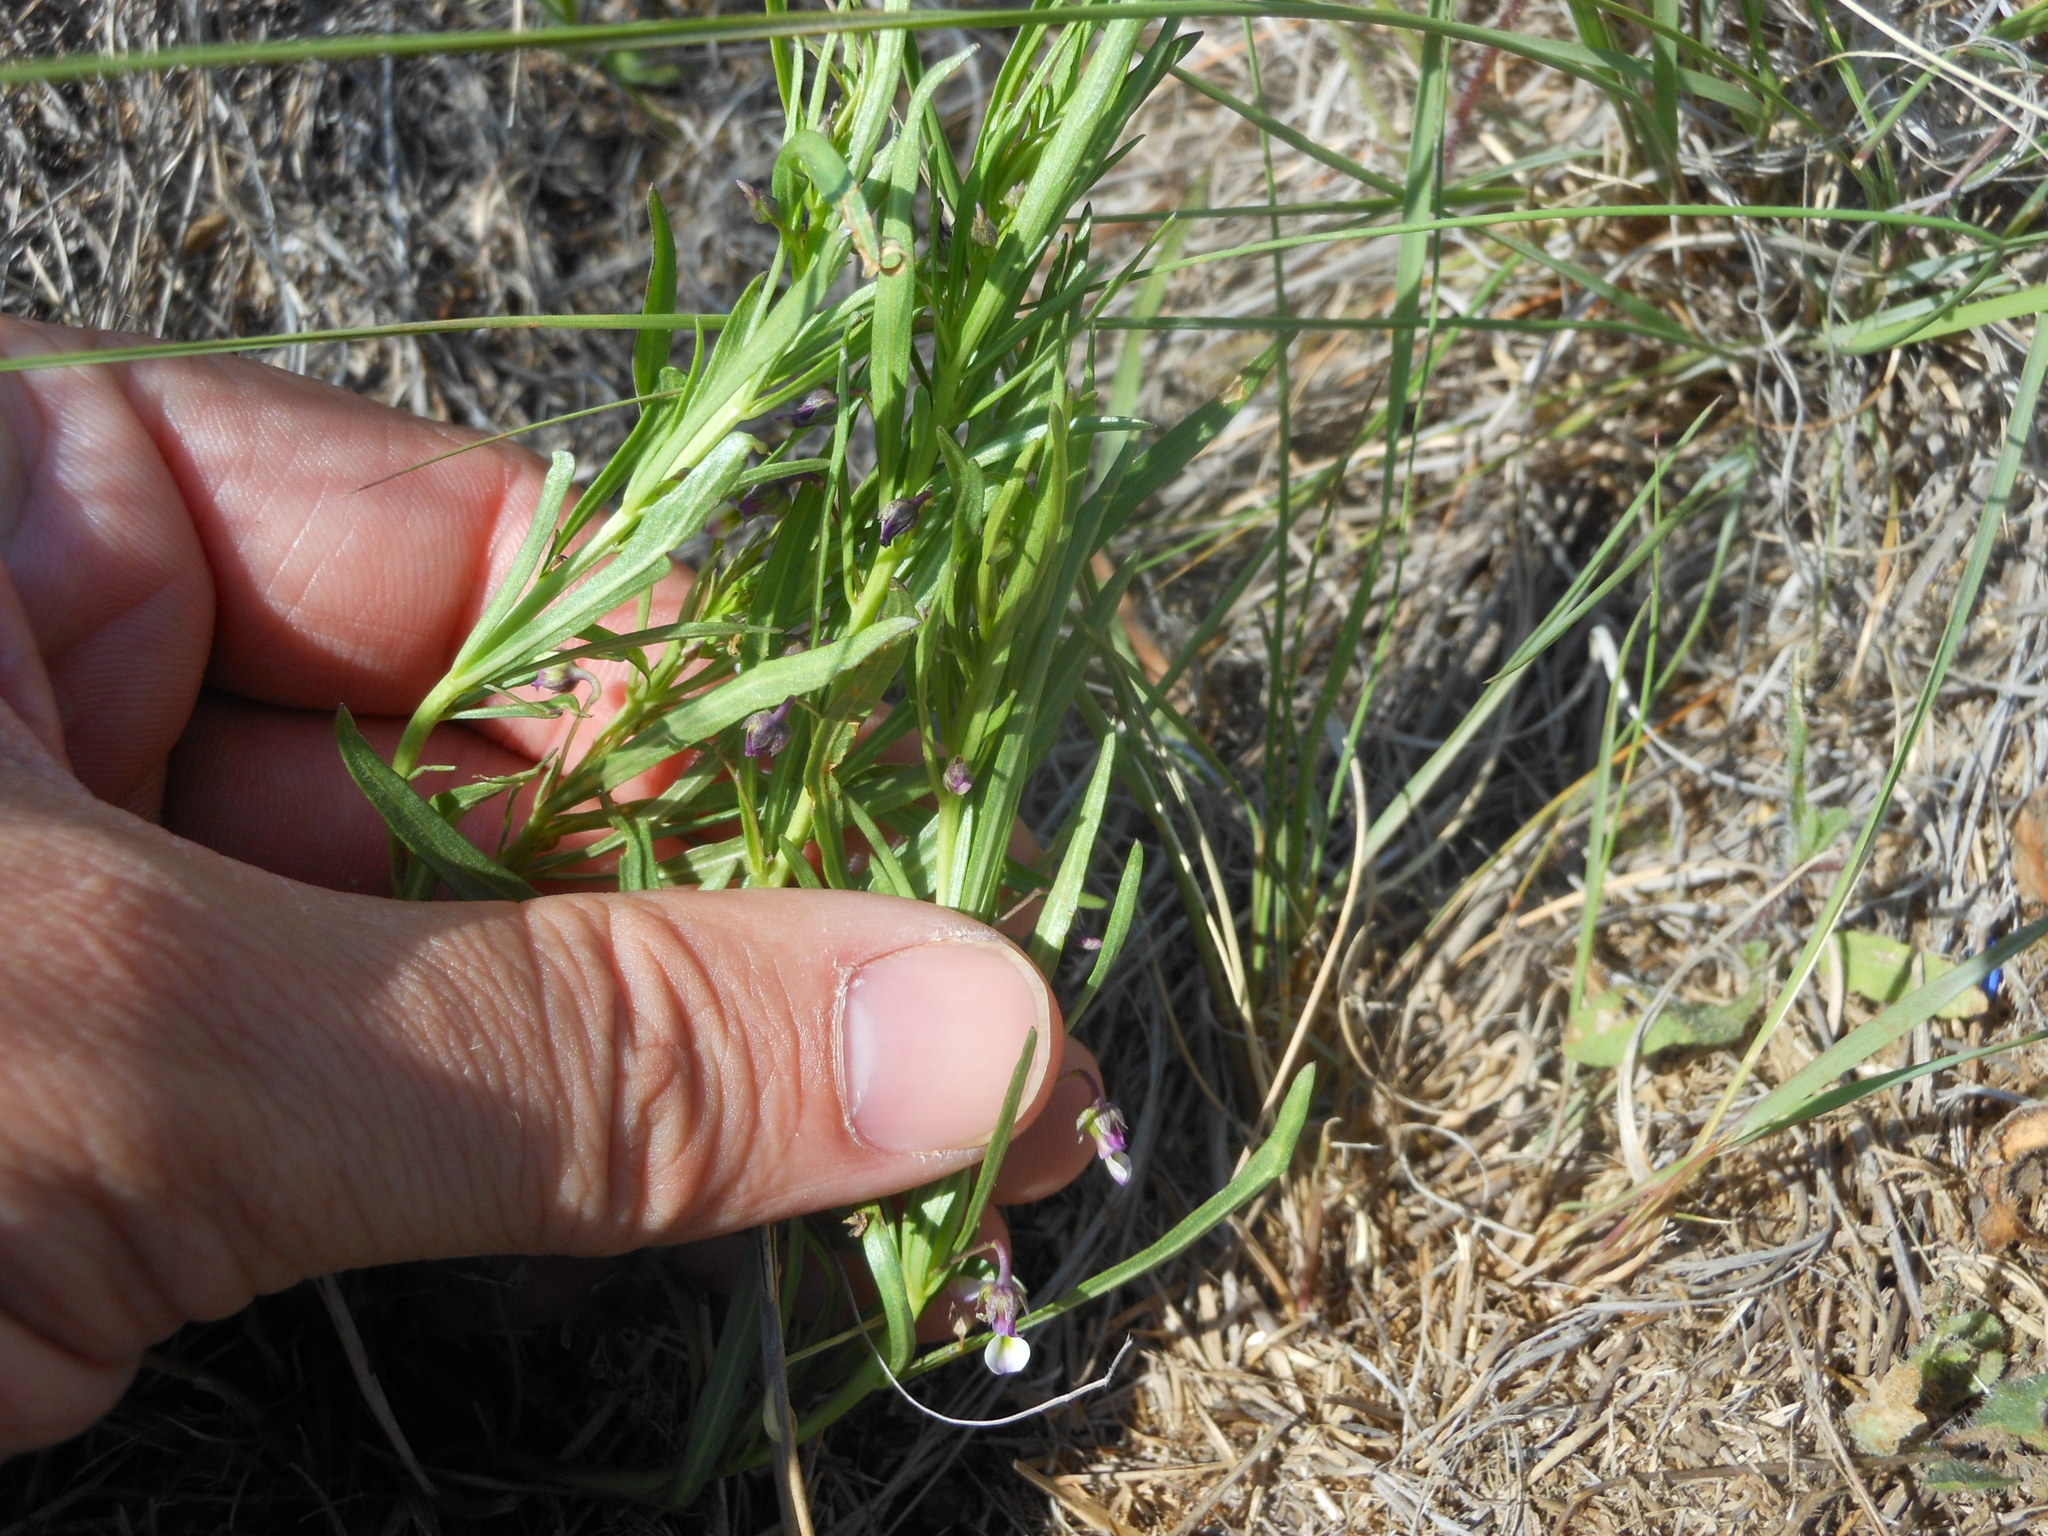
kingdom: Plantae
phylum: Tracheophyta
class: Magnoliopsida
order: Malpighiales
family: Violaceae
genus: Pombalia
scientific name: Pombalia verticillata
